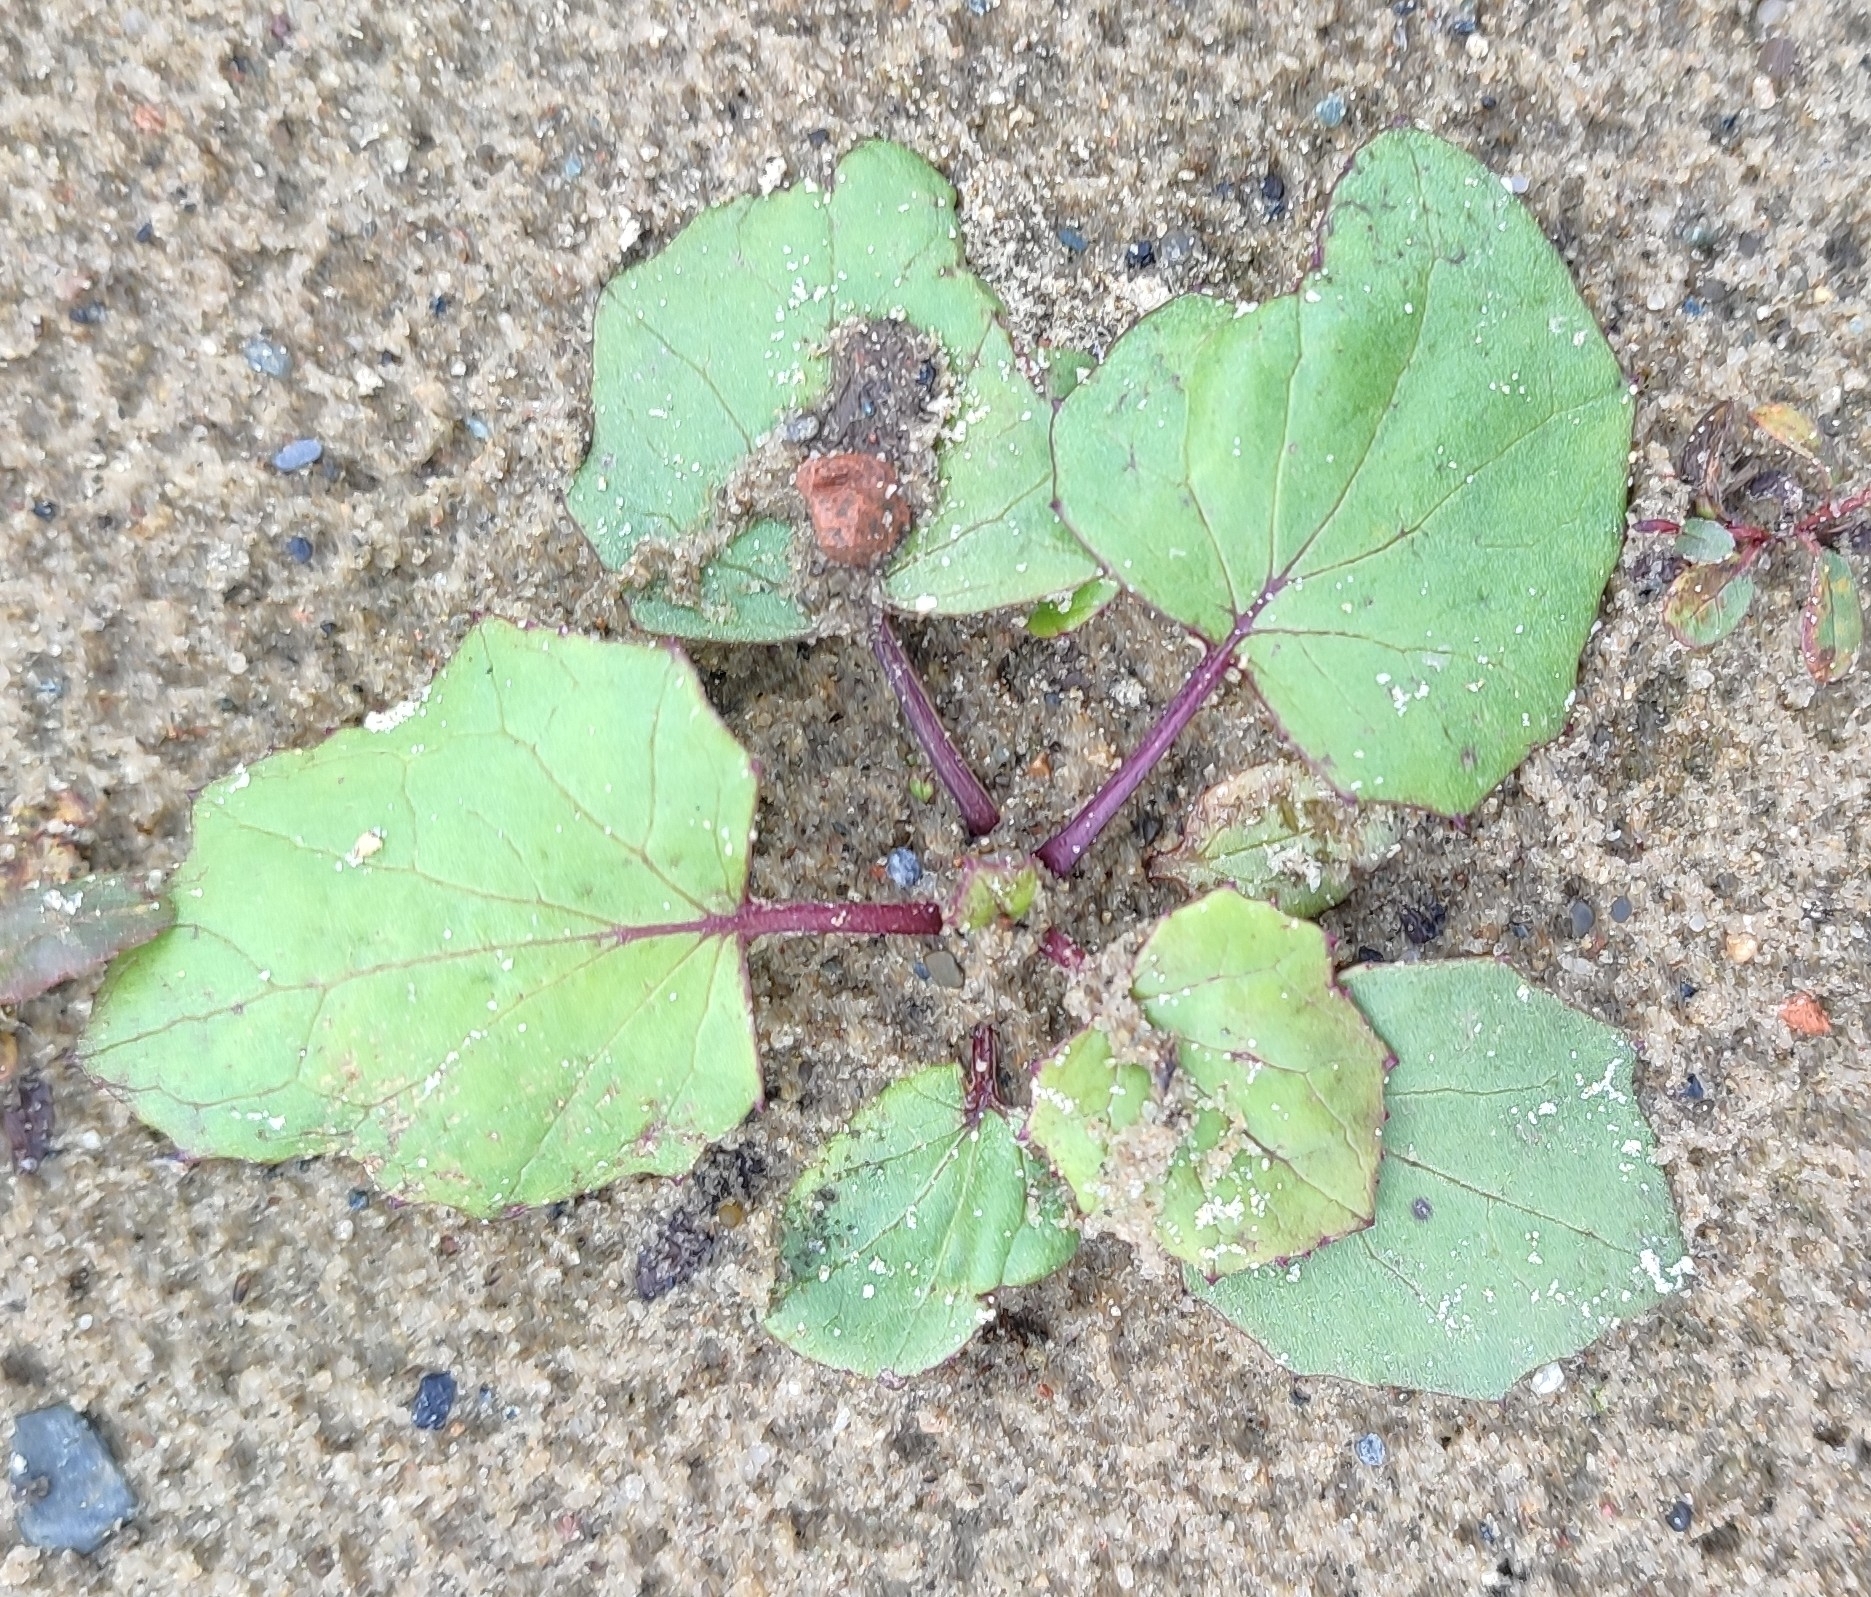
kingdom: Plantae
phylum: Tracheophyta
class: Magnoliopsida
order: Asterales
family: Asteraceae
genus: Tussilago
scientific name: Tussilago farfara
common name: Coltsfoot
